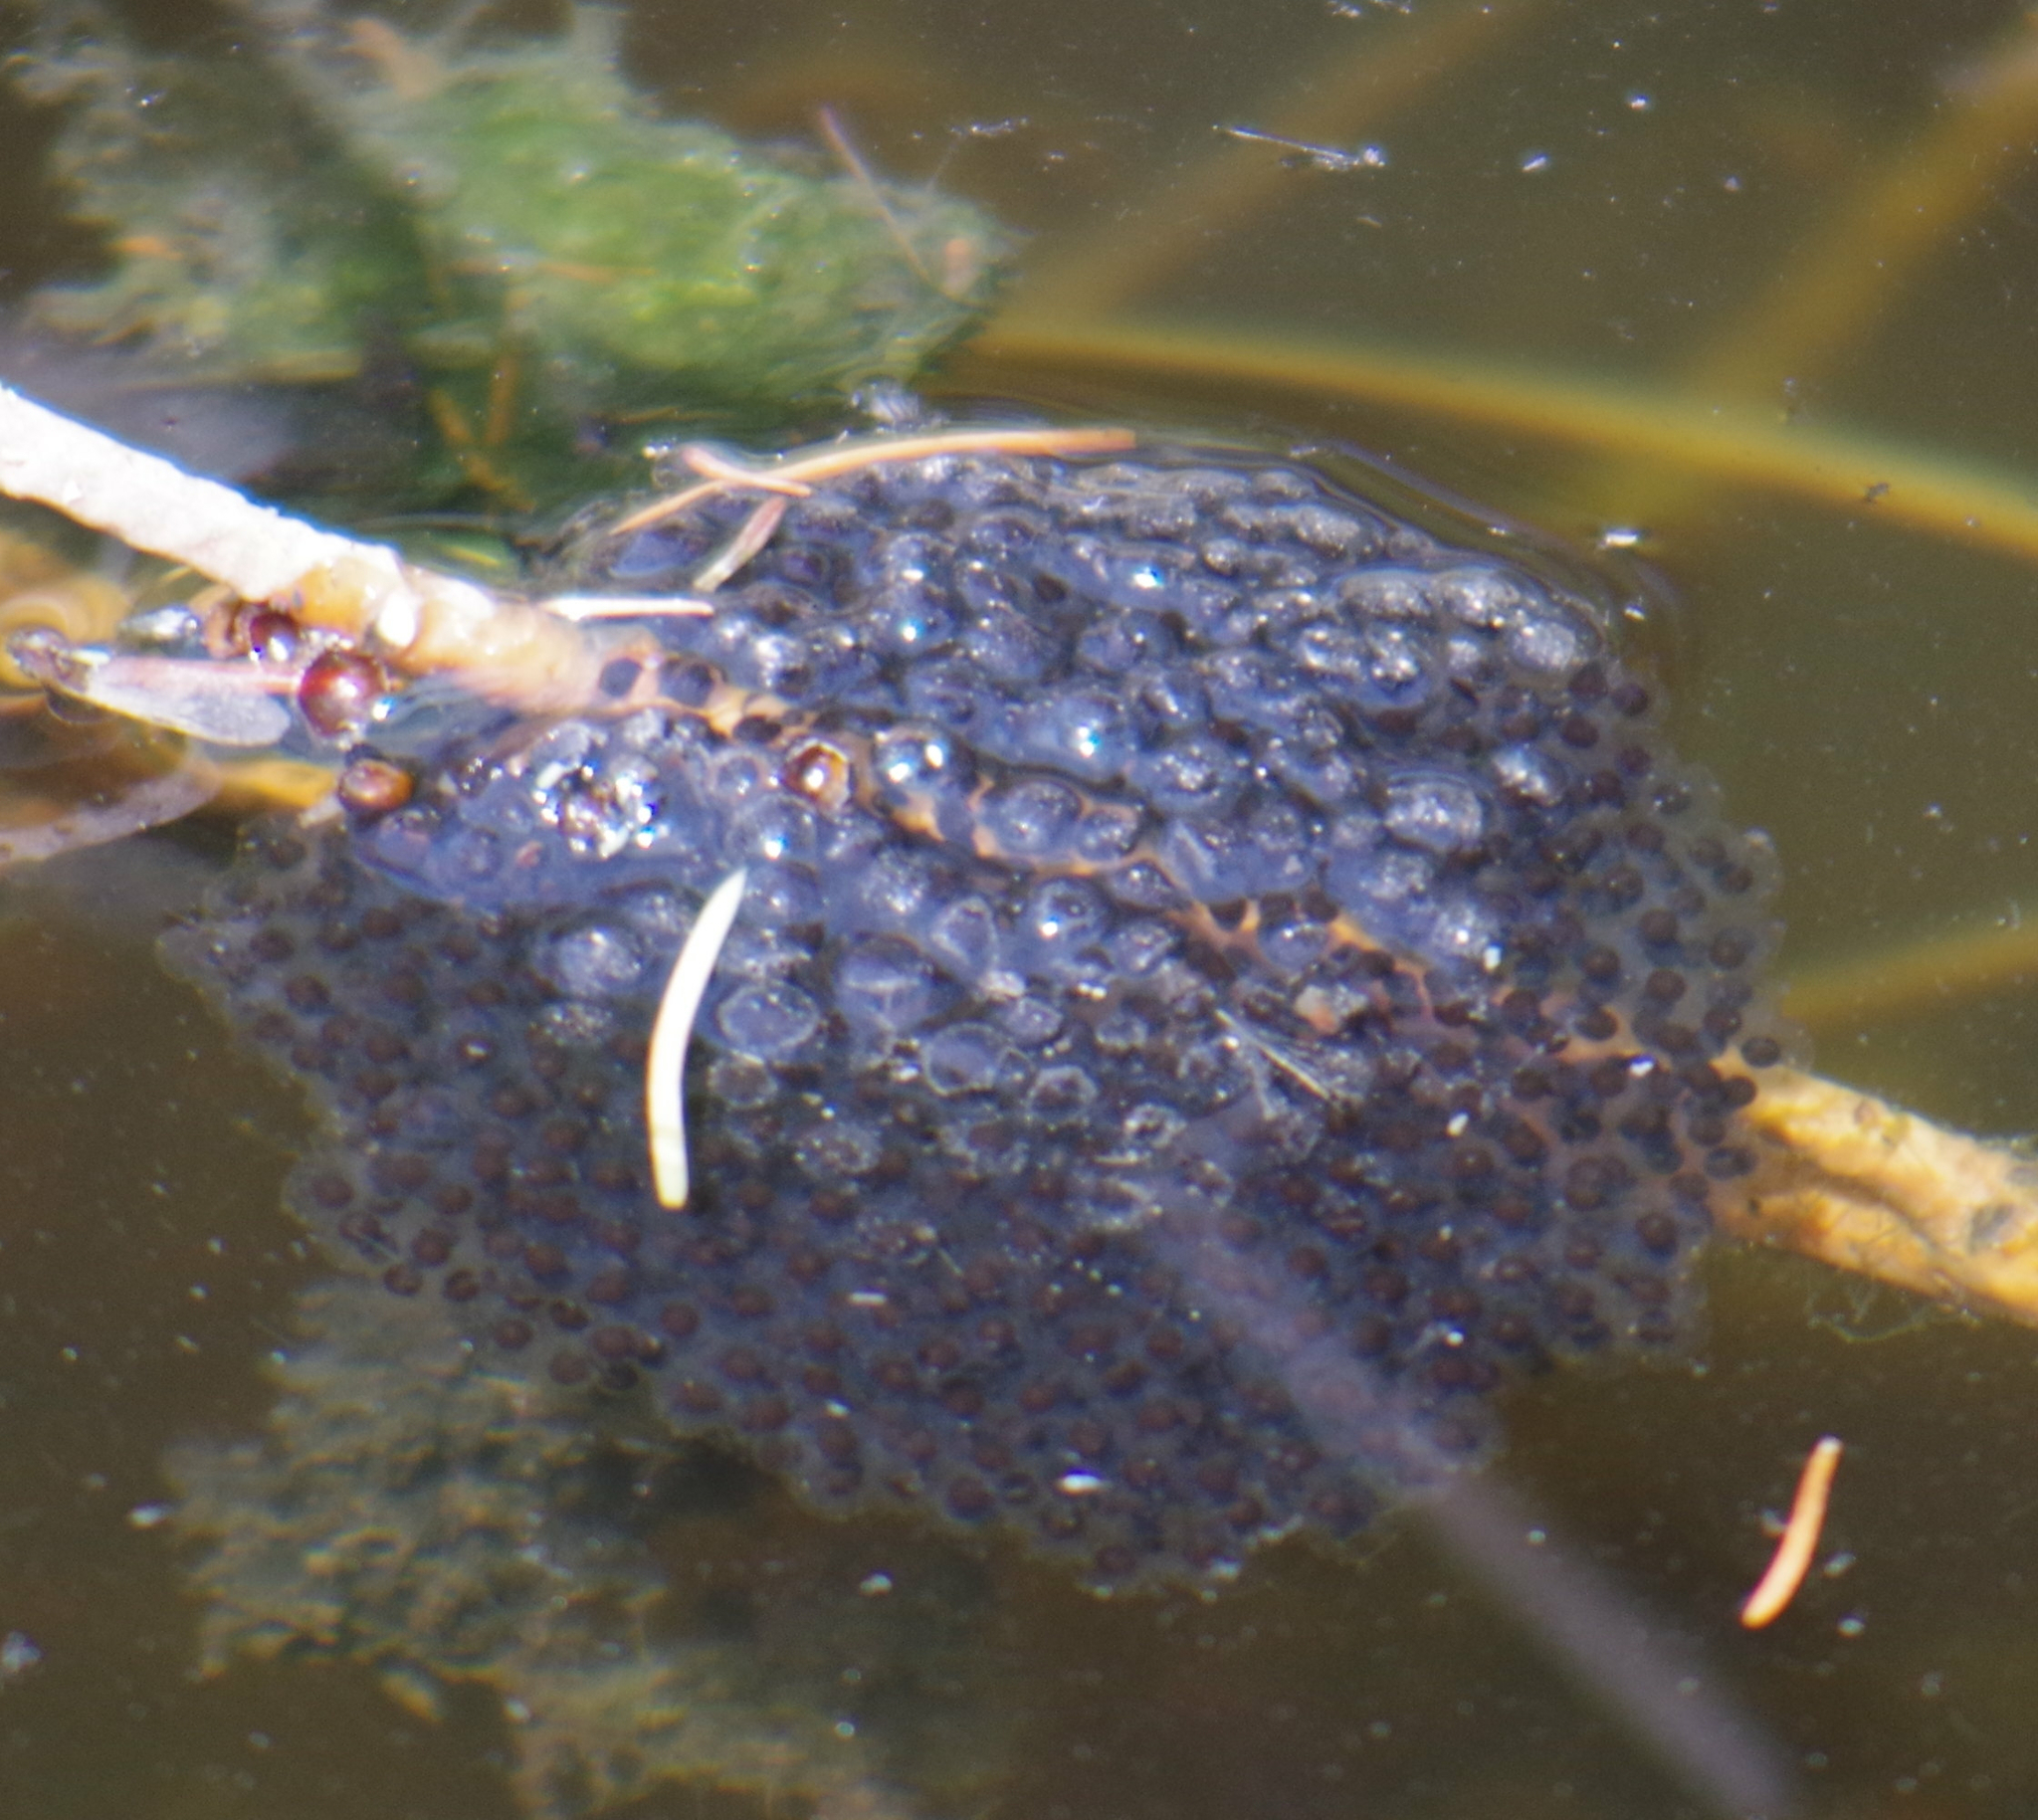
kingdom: Animalia
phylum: Chordata
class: Amphibia
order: Anura
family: Ranidae
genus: Lithobates
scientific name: Lithobates pipiens
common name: Northern leopard frog
